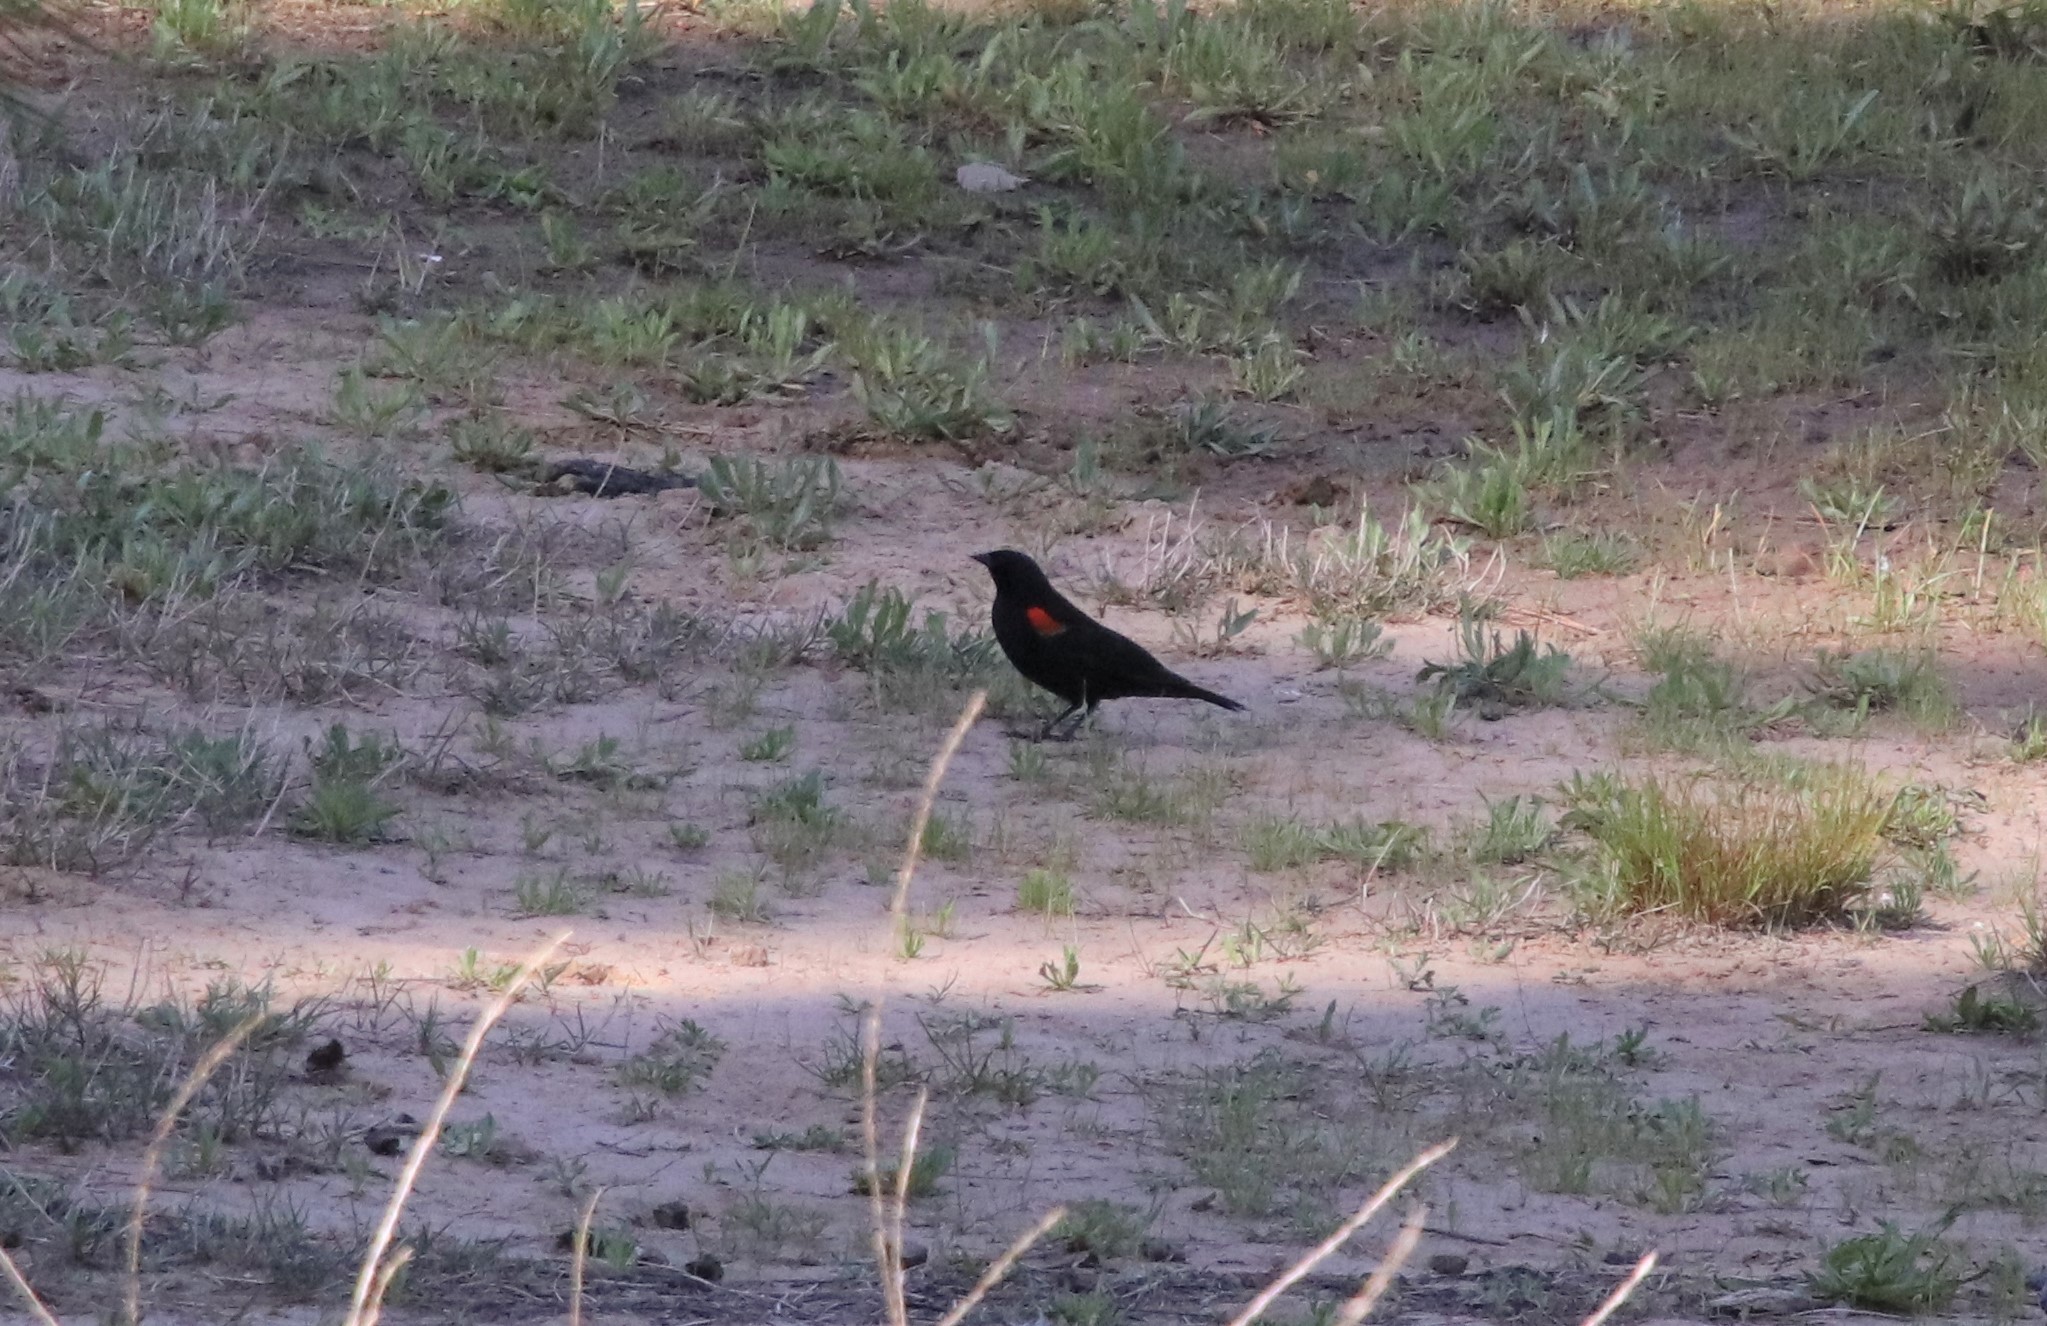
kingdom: Animalia
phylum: Chordata
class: Aves
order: Passeriformes
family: Icteridae
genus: Agelaius
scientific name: Agelaius phoeniceus
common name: Red-winged blackbird
